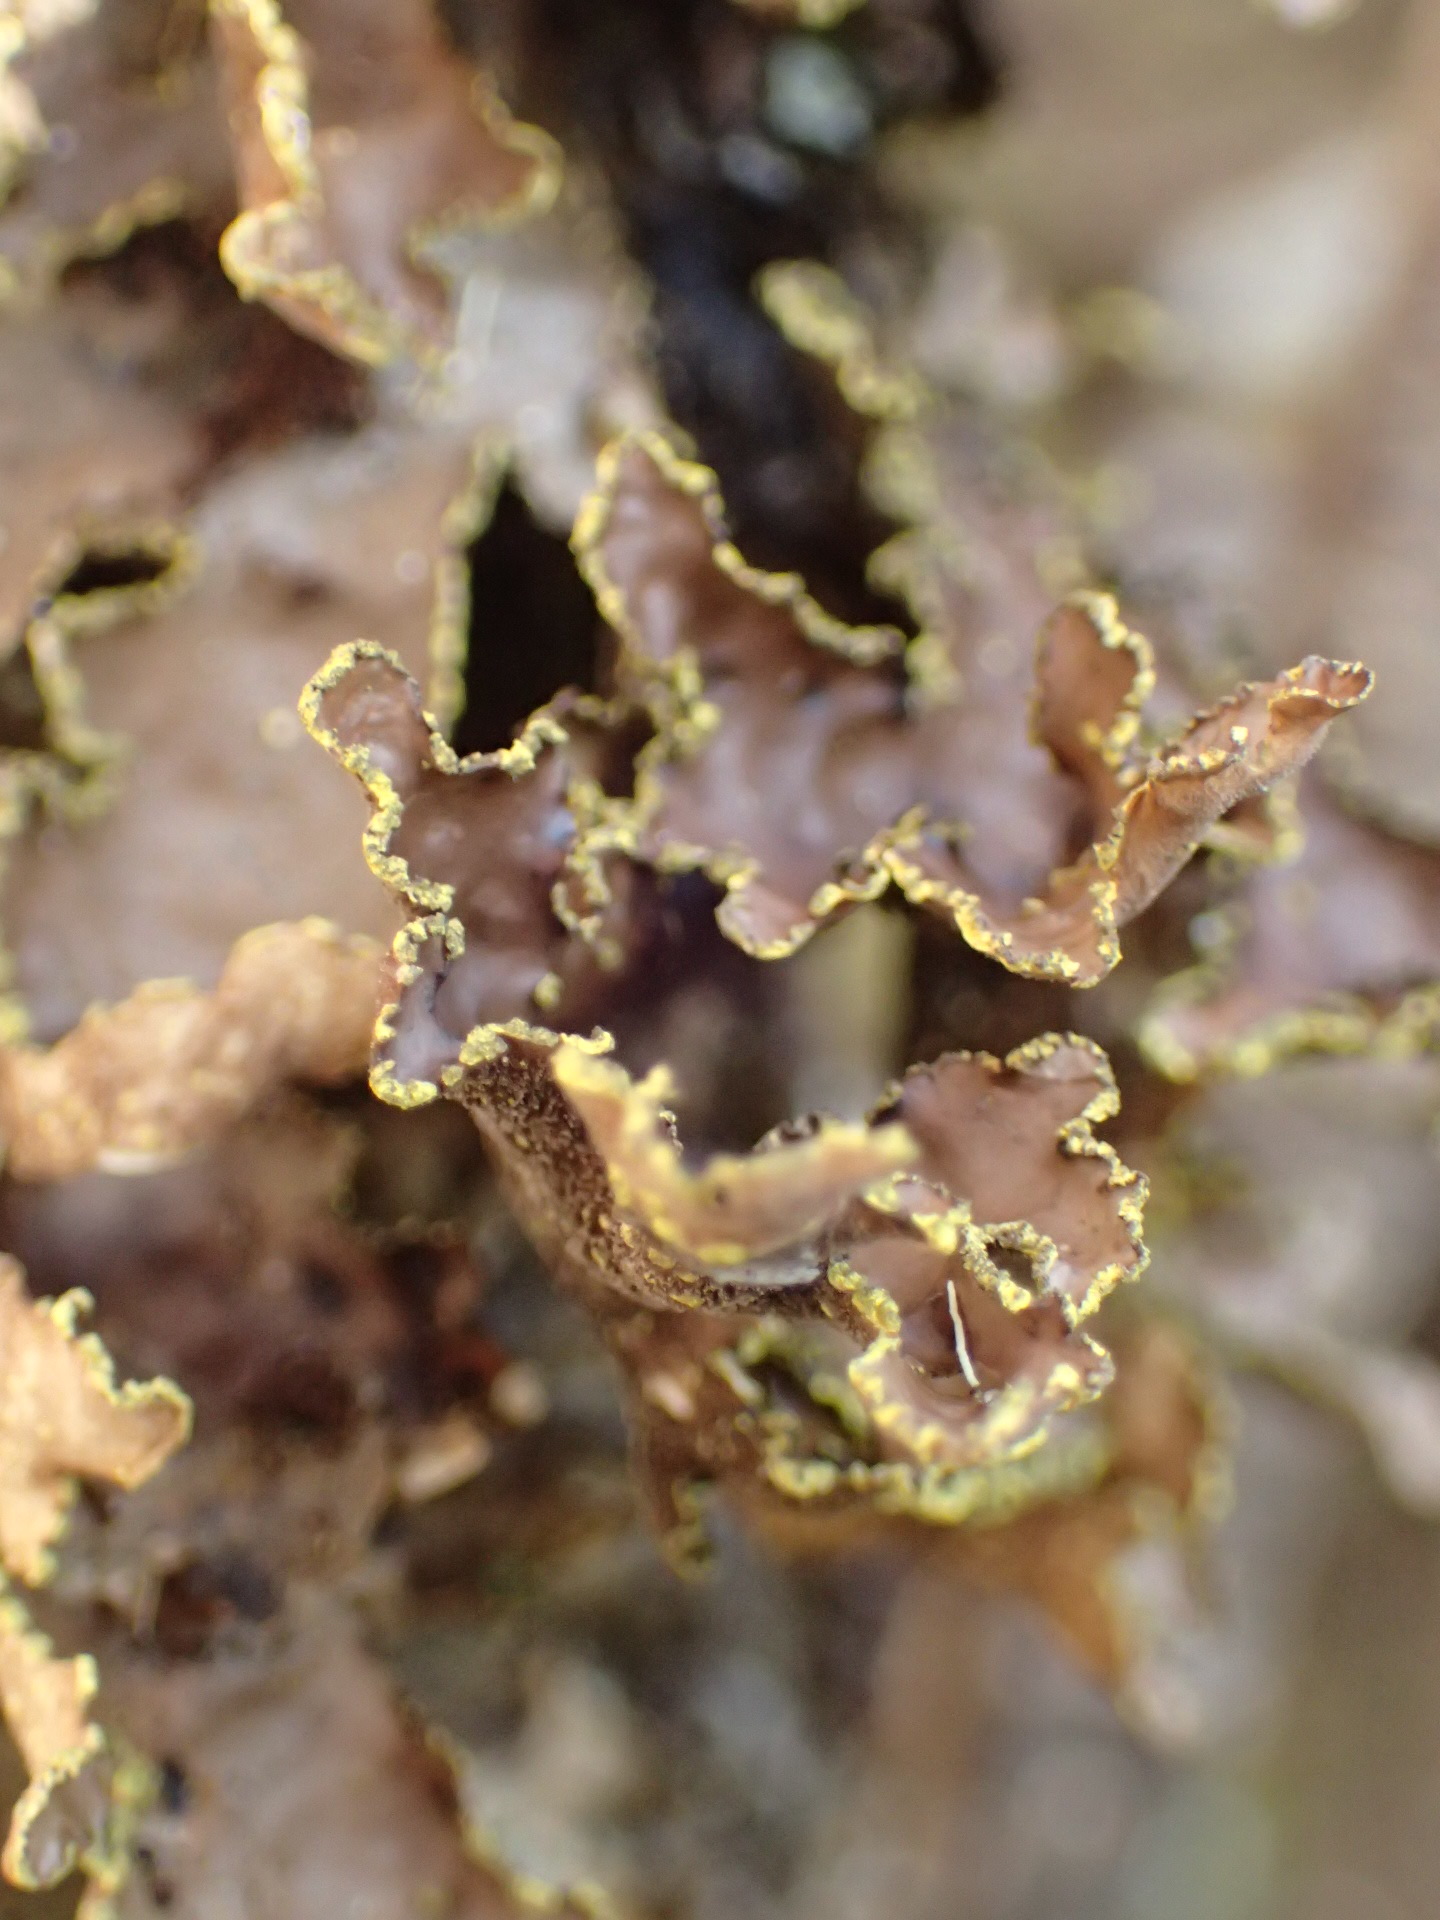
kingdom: Fungi
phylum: Ascomycota
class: Lecanoromycetes
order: Peltigerales
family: Lobariaceae
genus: Pseudocyphellaria
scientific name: Pseudocyphellaria holarctica
